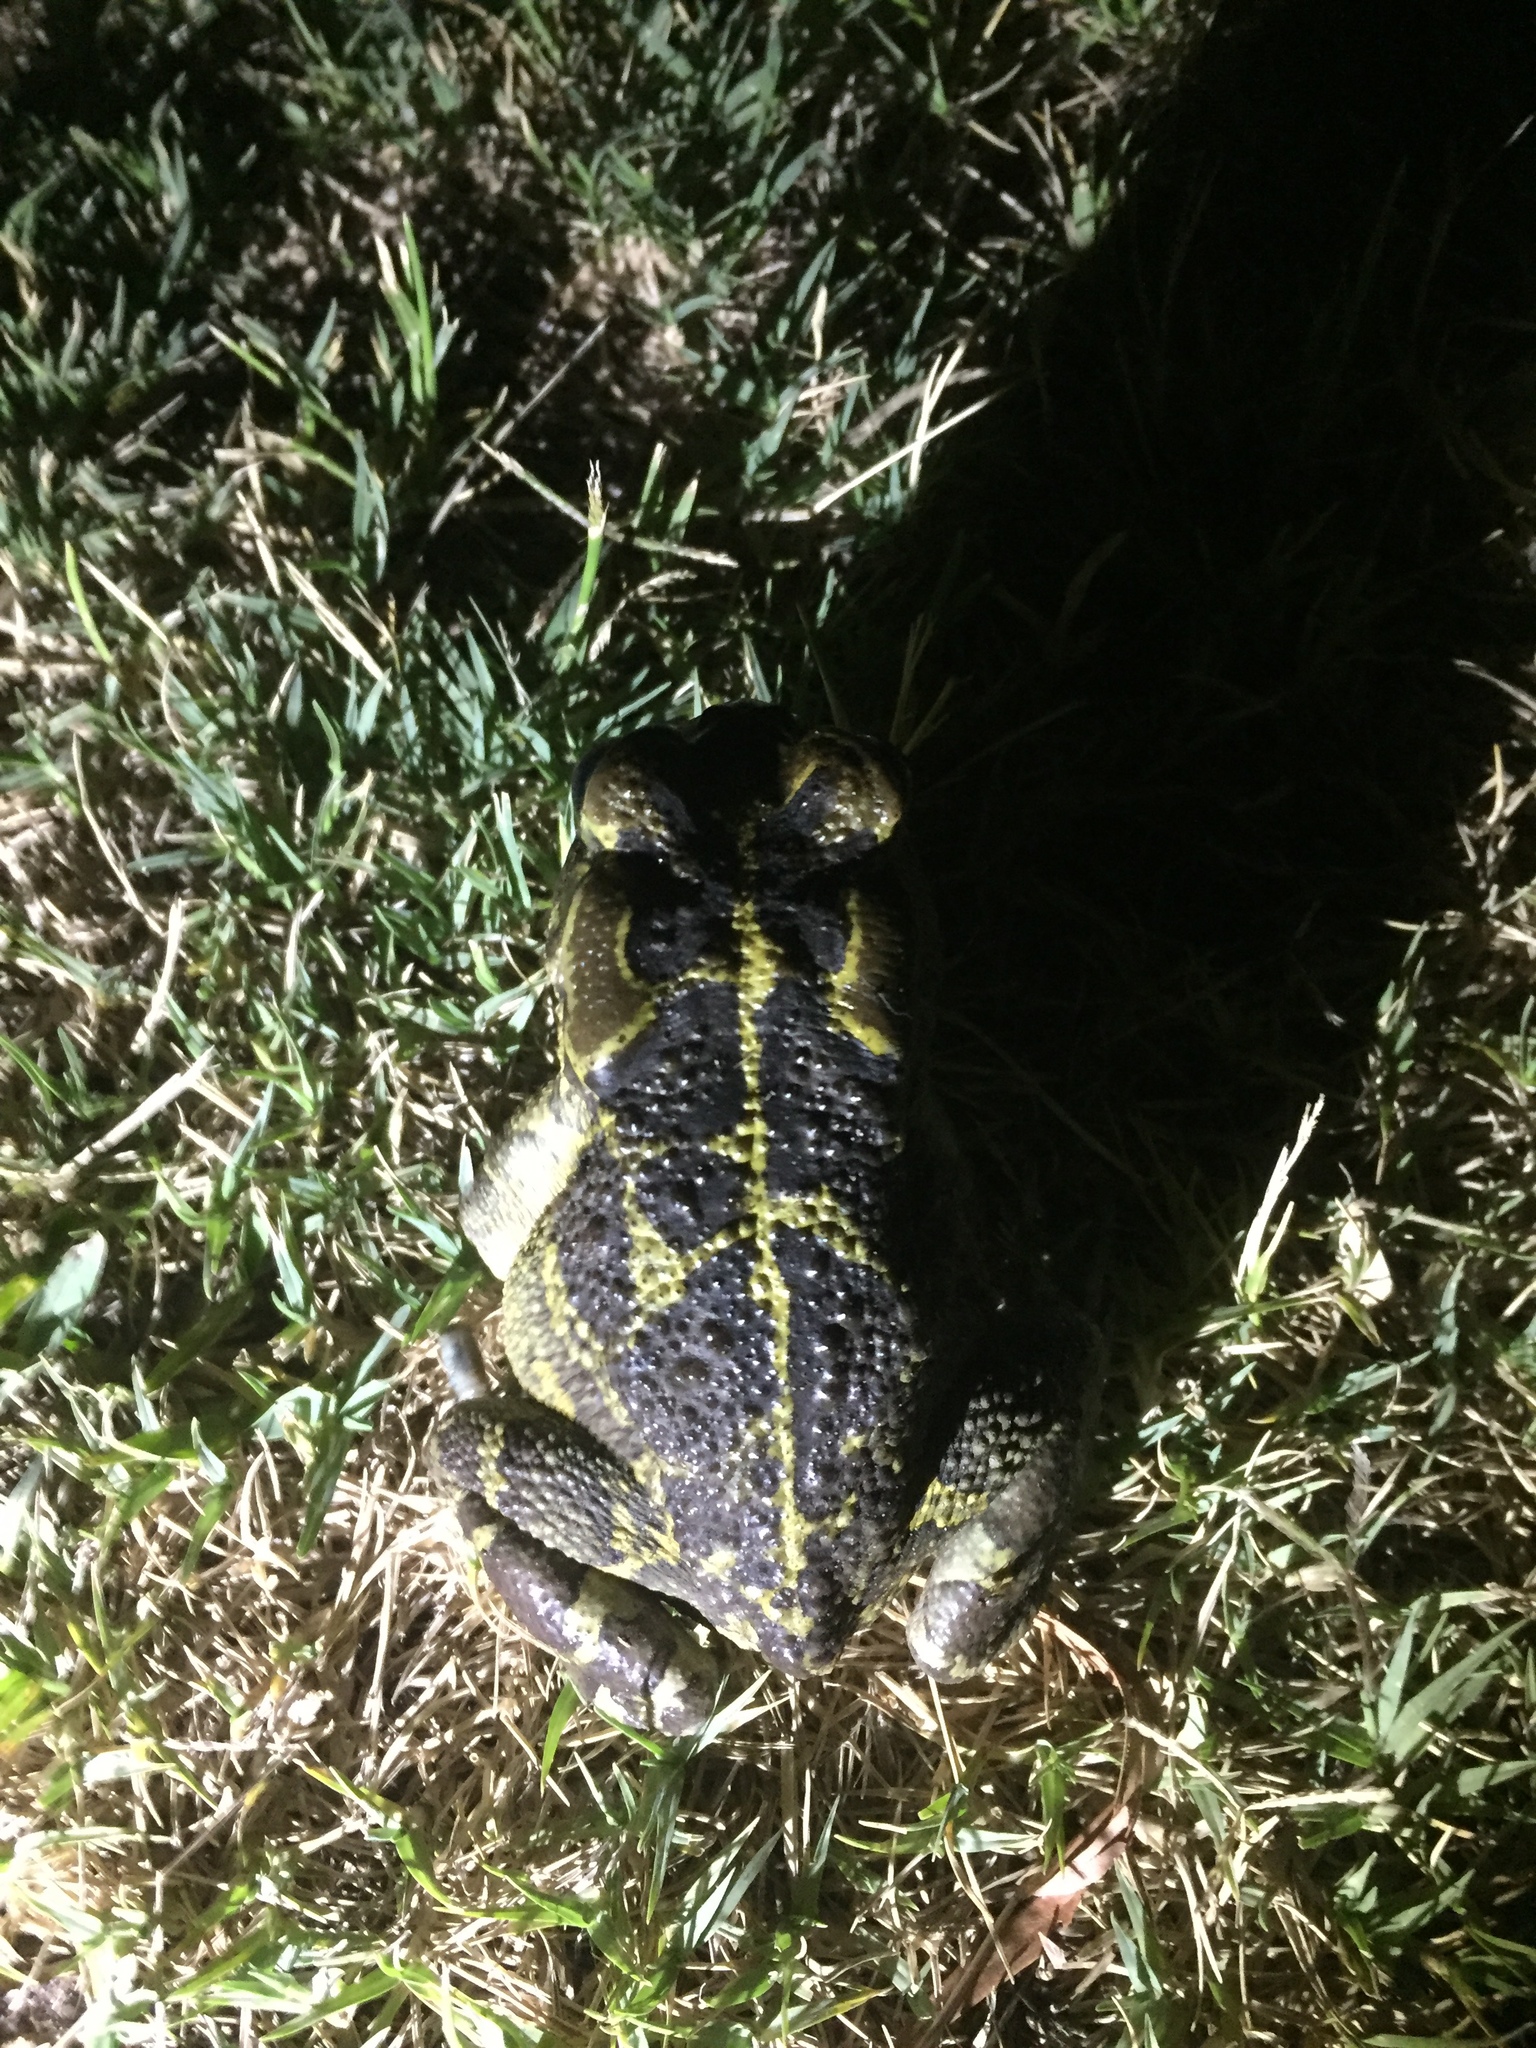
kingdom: Animalia
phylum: Chordata
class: Amphibia
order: Anura
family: Bufonidae
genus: Sclerophrys
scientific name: Sclerophrys pantherina
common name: Panther toad
